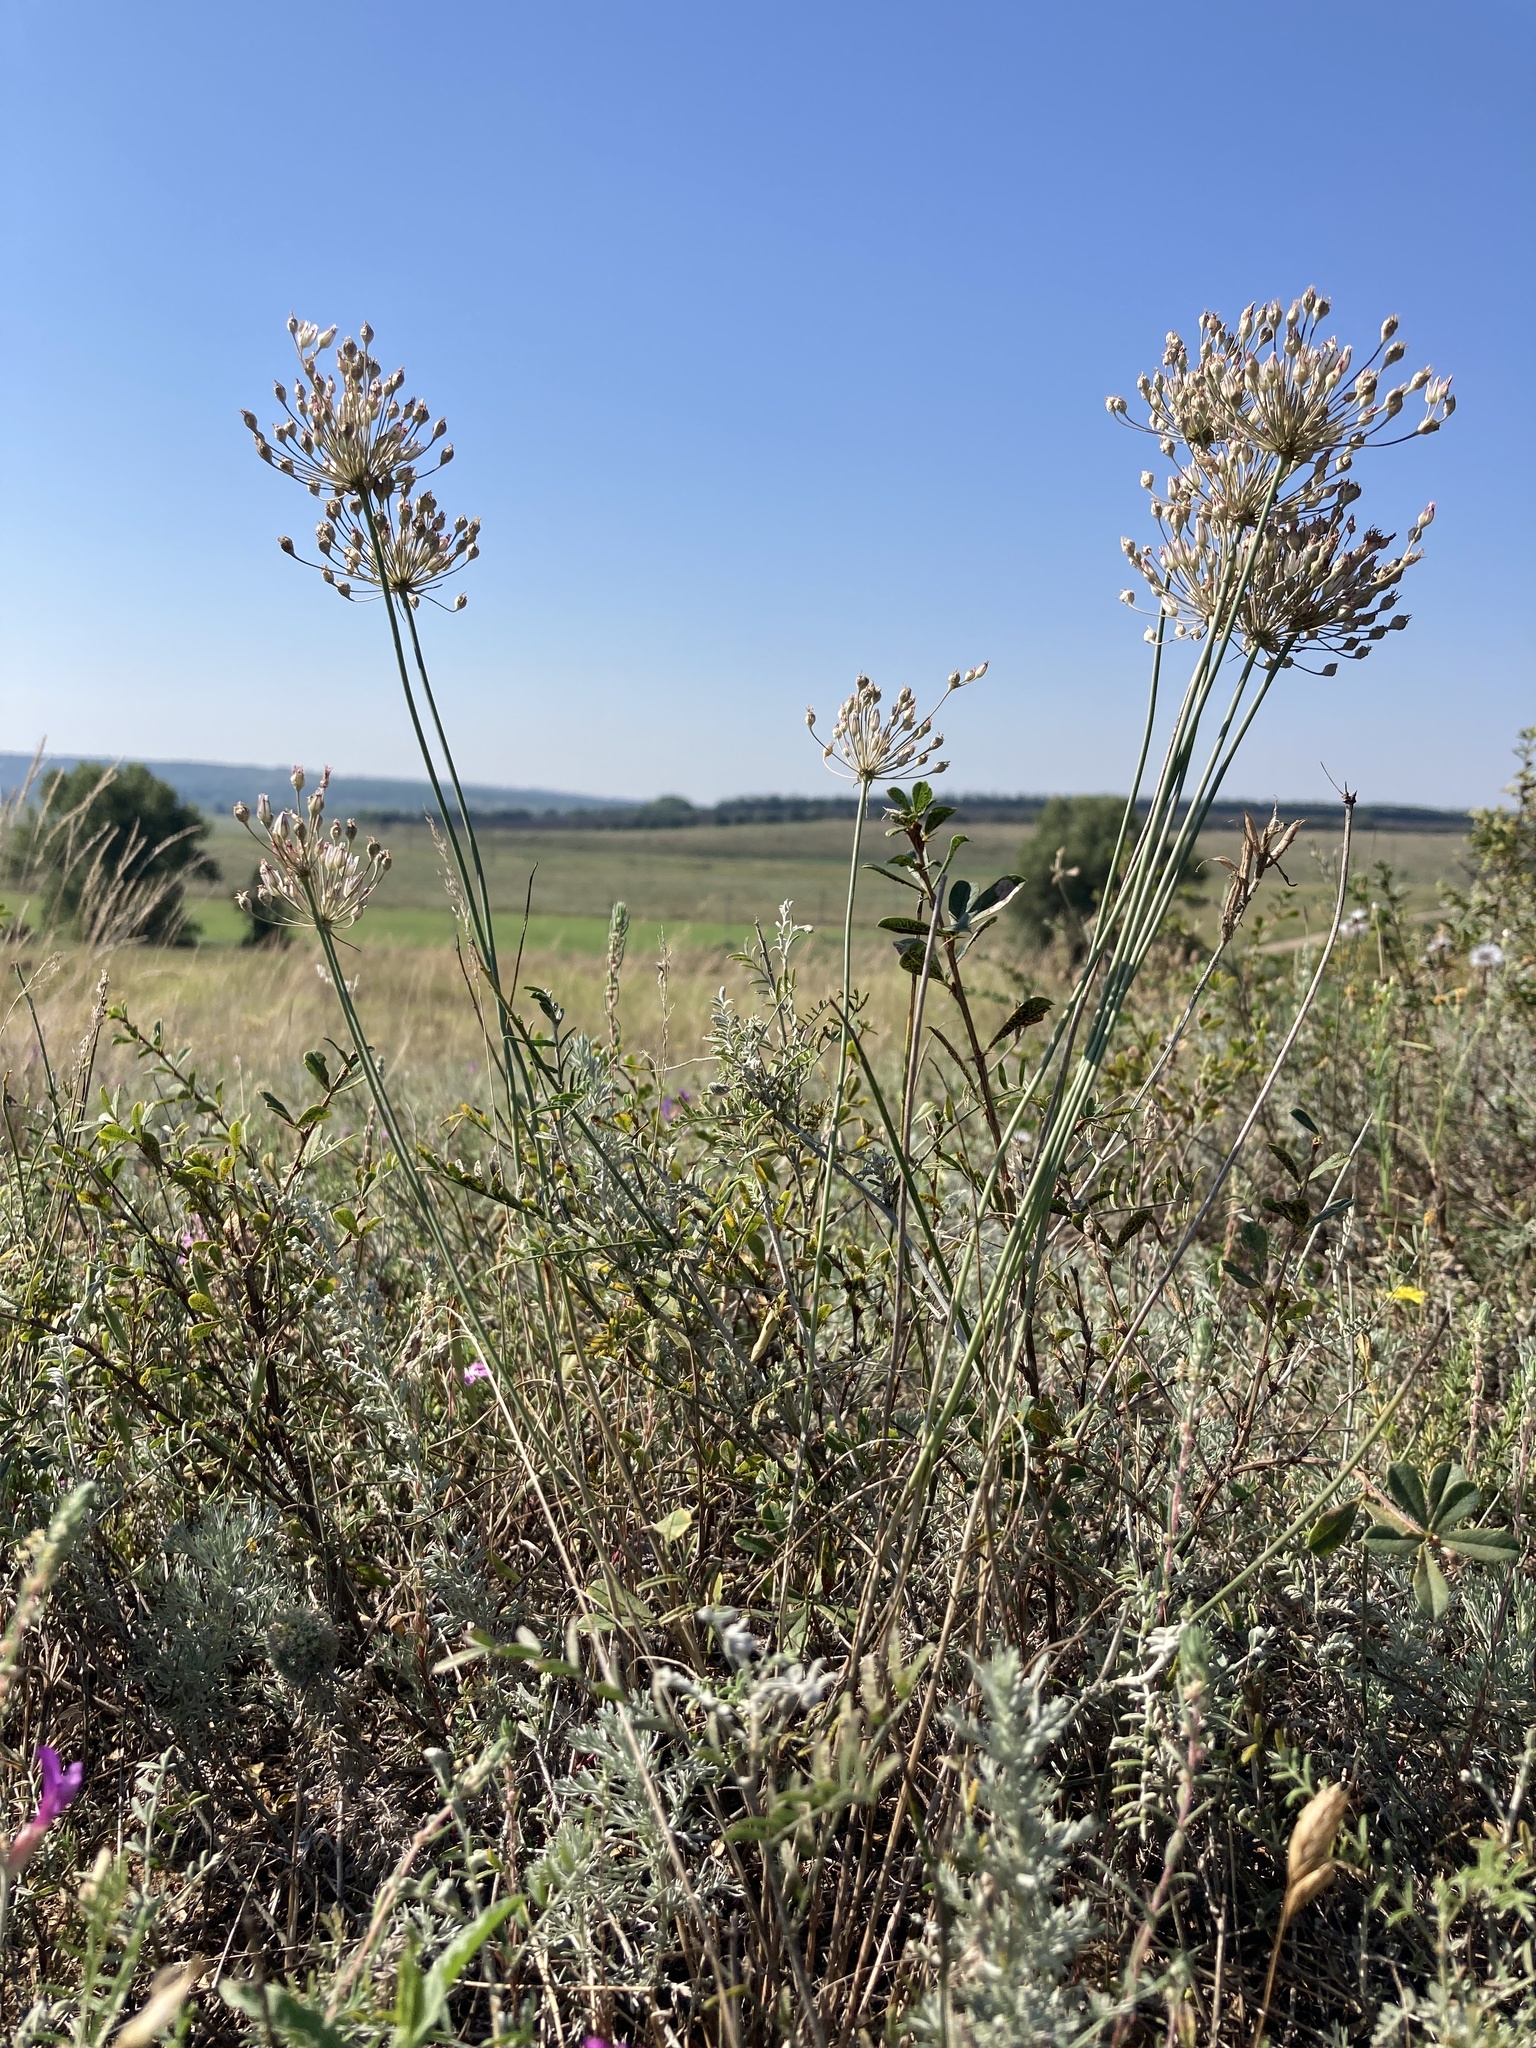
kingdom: Plantae
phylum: Tracheophyta
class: Liliopsida
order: Asparagales
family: Amaryllidaceae
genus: Allium
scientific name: Allium inaequale
